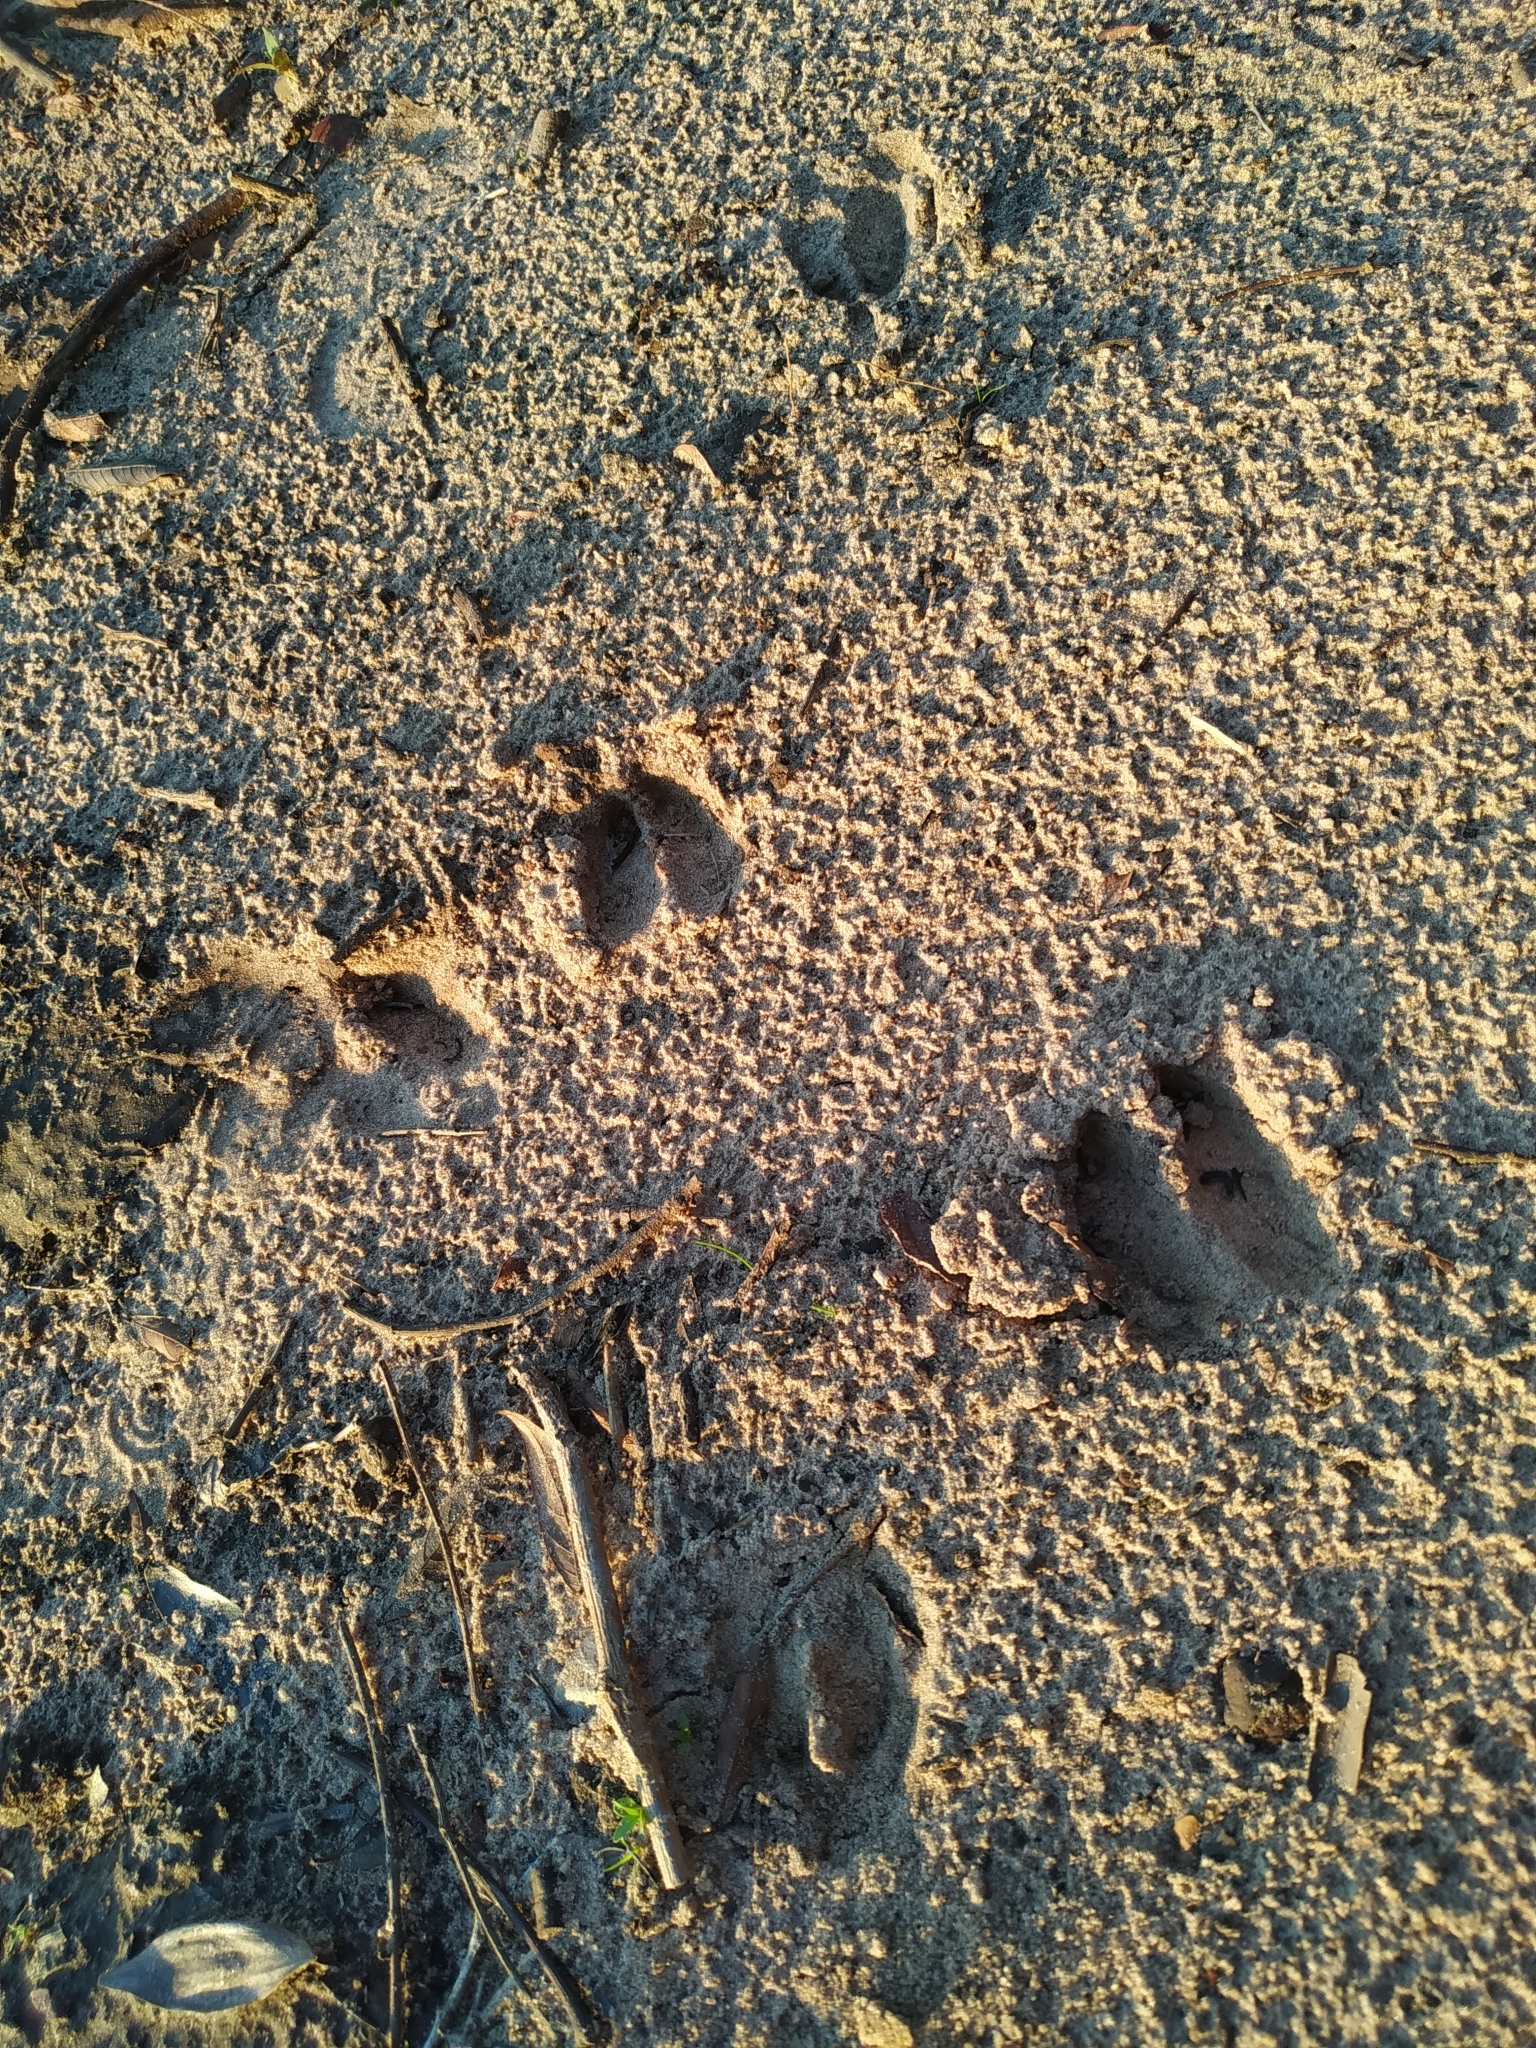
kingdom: Animalia
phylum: Chordata
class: Mammalia
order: Artiodactyla
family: Cervidae
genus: Mazama
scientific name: Mazama gouazoubira
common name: Gray brocket
